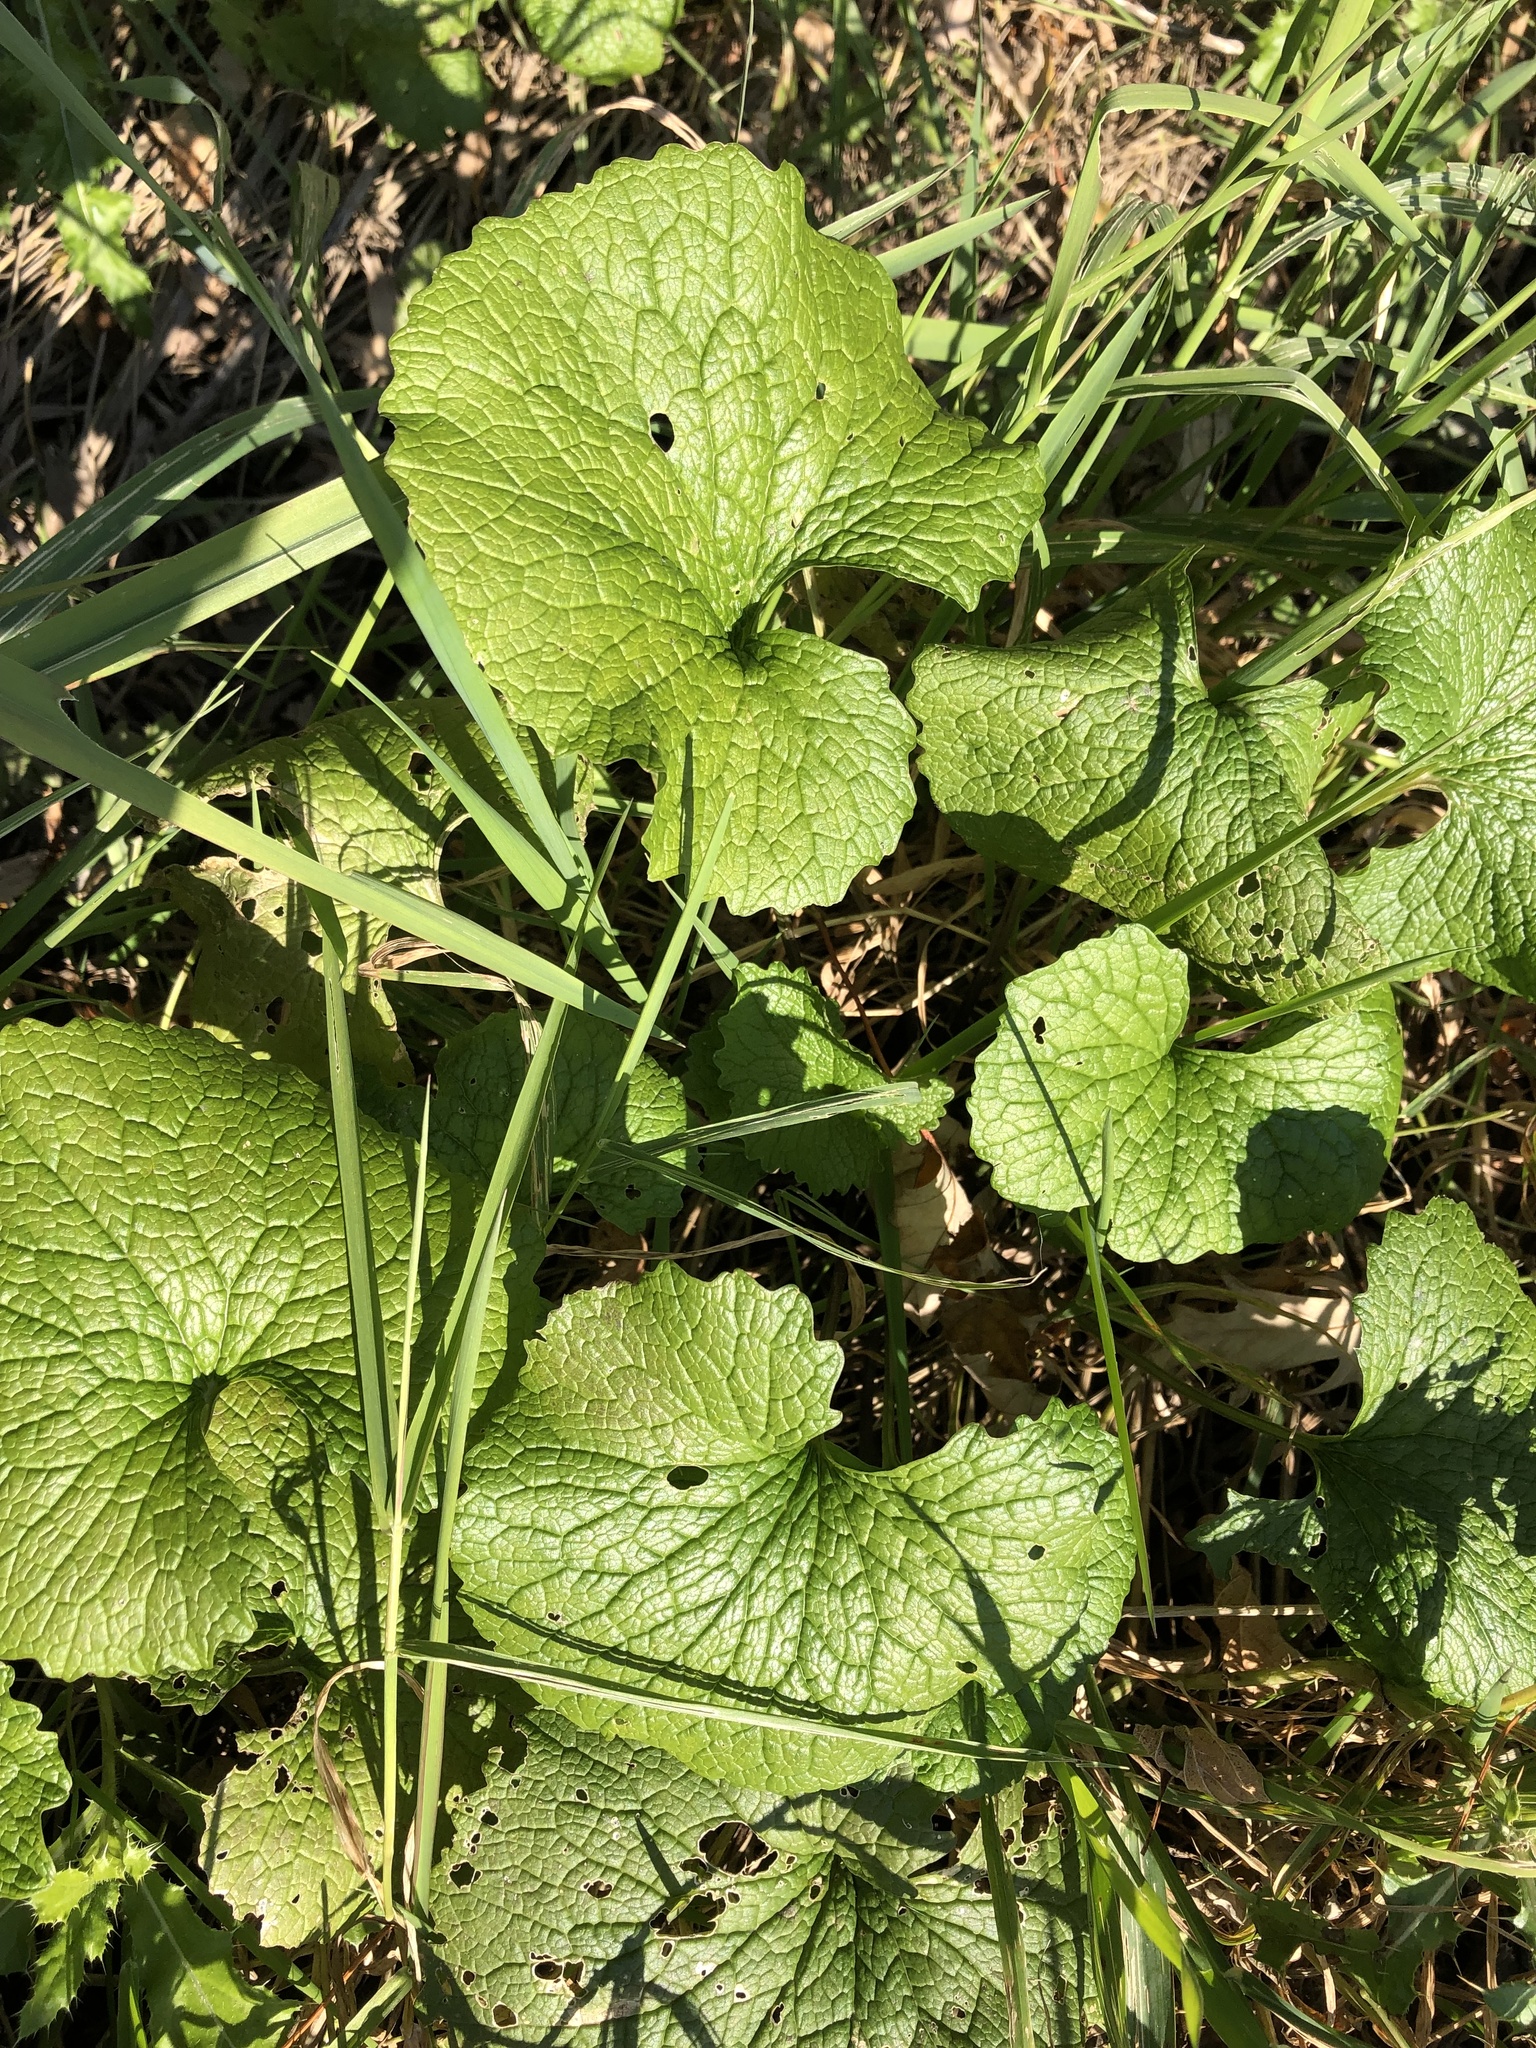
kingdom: Plantae
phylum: Tracheophyta
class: Magnoliopsida
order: Brassicales
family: Brassicaceae
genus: Alliaria
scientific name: Alliaria petiolata
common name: Garlic mustard
